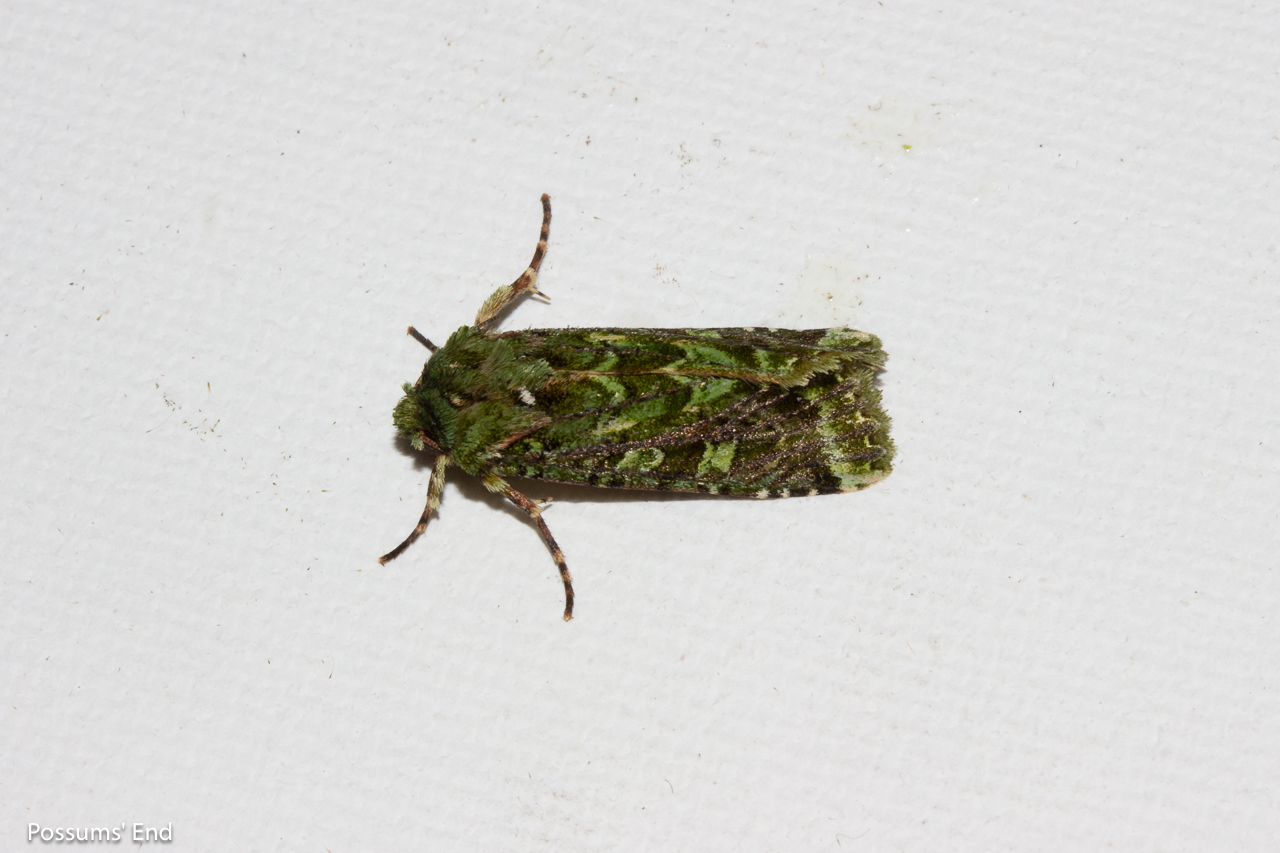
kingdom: Animalia
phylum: Arthropoda
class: Insecta
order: Lepidoptera
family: Noctuidae
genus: Feredayia
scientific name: Feredayia grammosa
